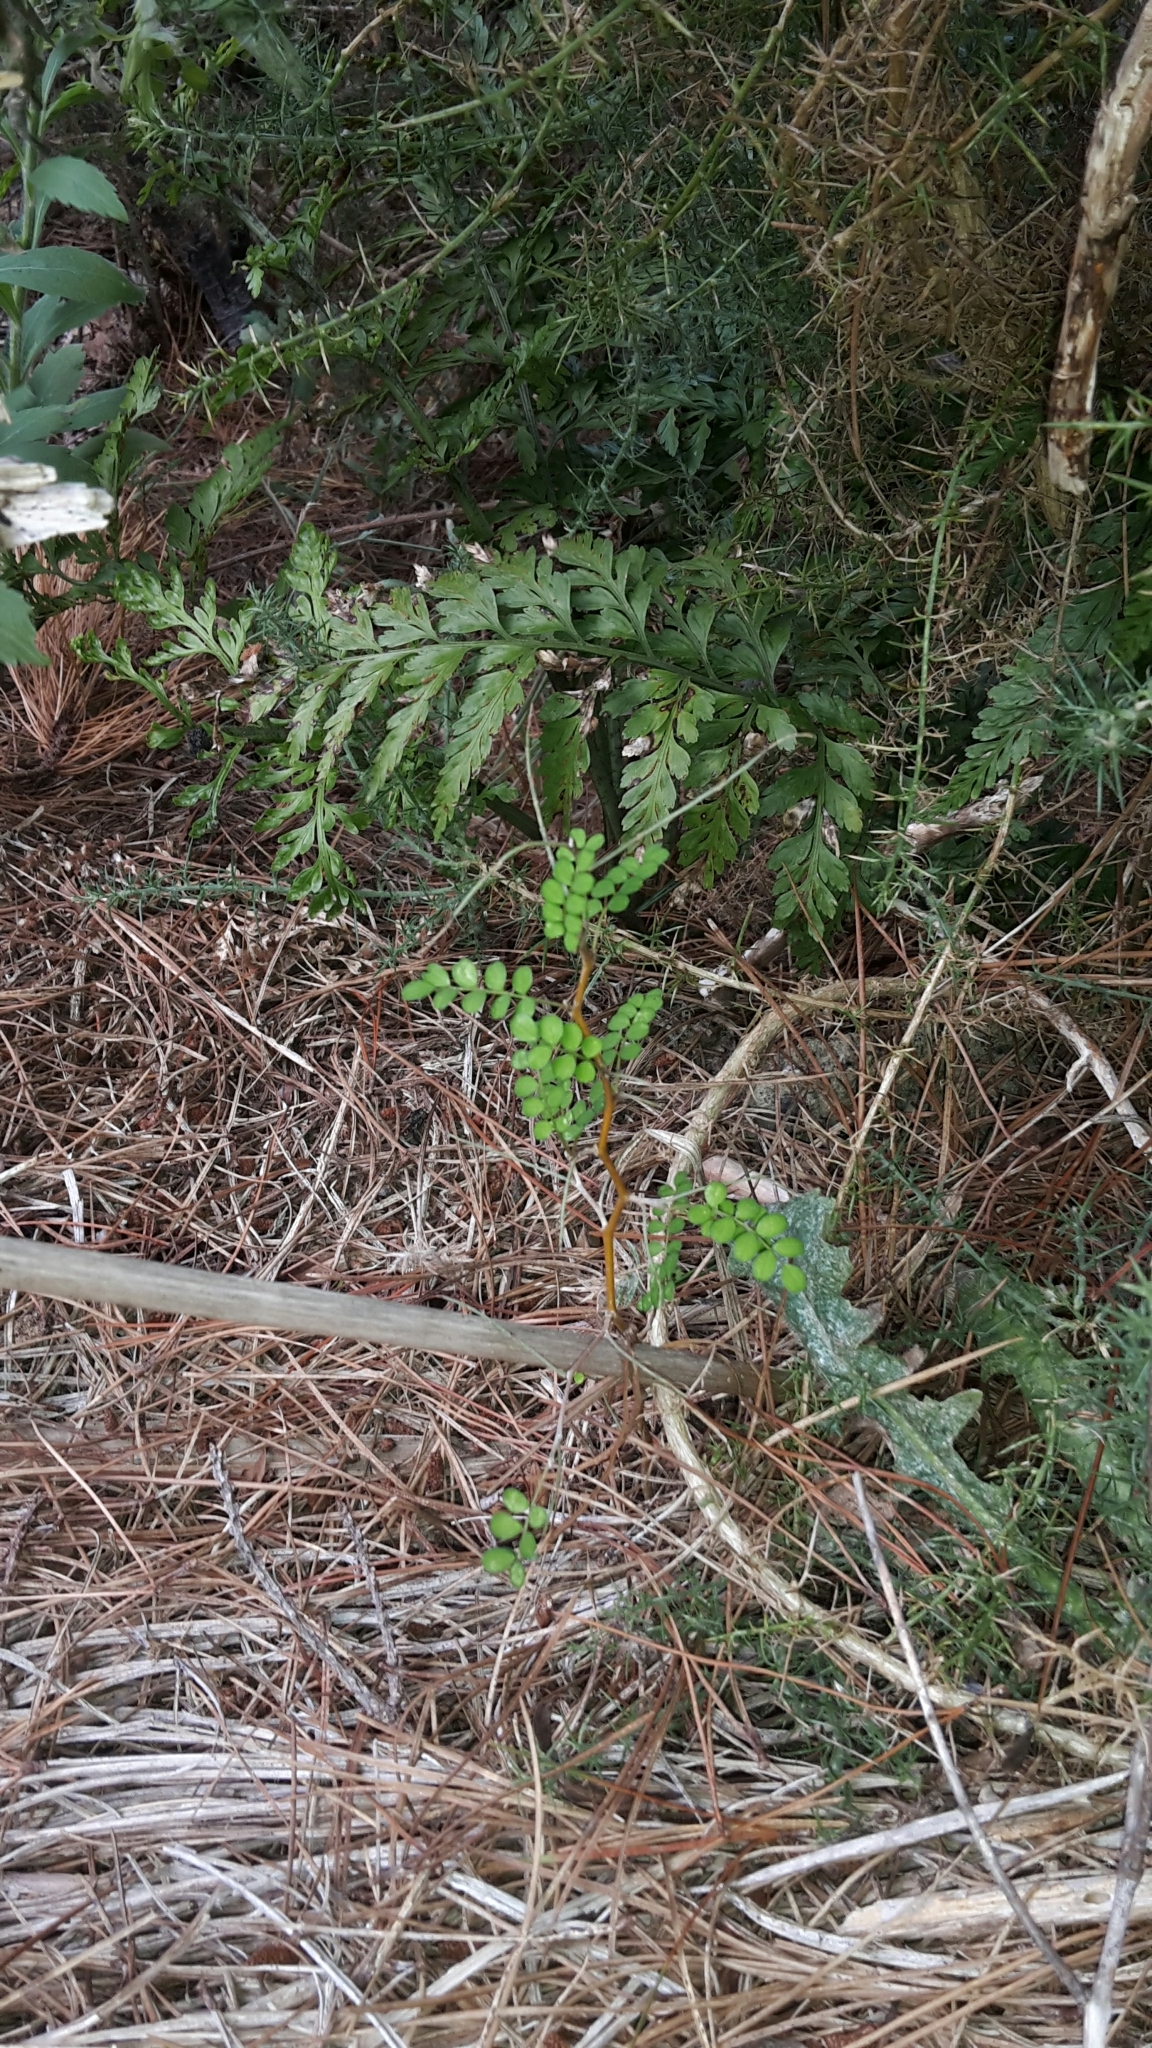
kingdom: Plantae
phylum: Tracheophyta
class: Magnoliopsida
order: Fabales
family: Fabaceae
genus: Sophora
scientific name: Sophora microphylla
